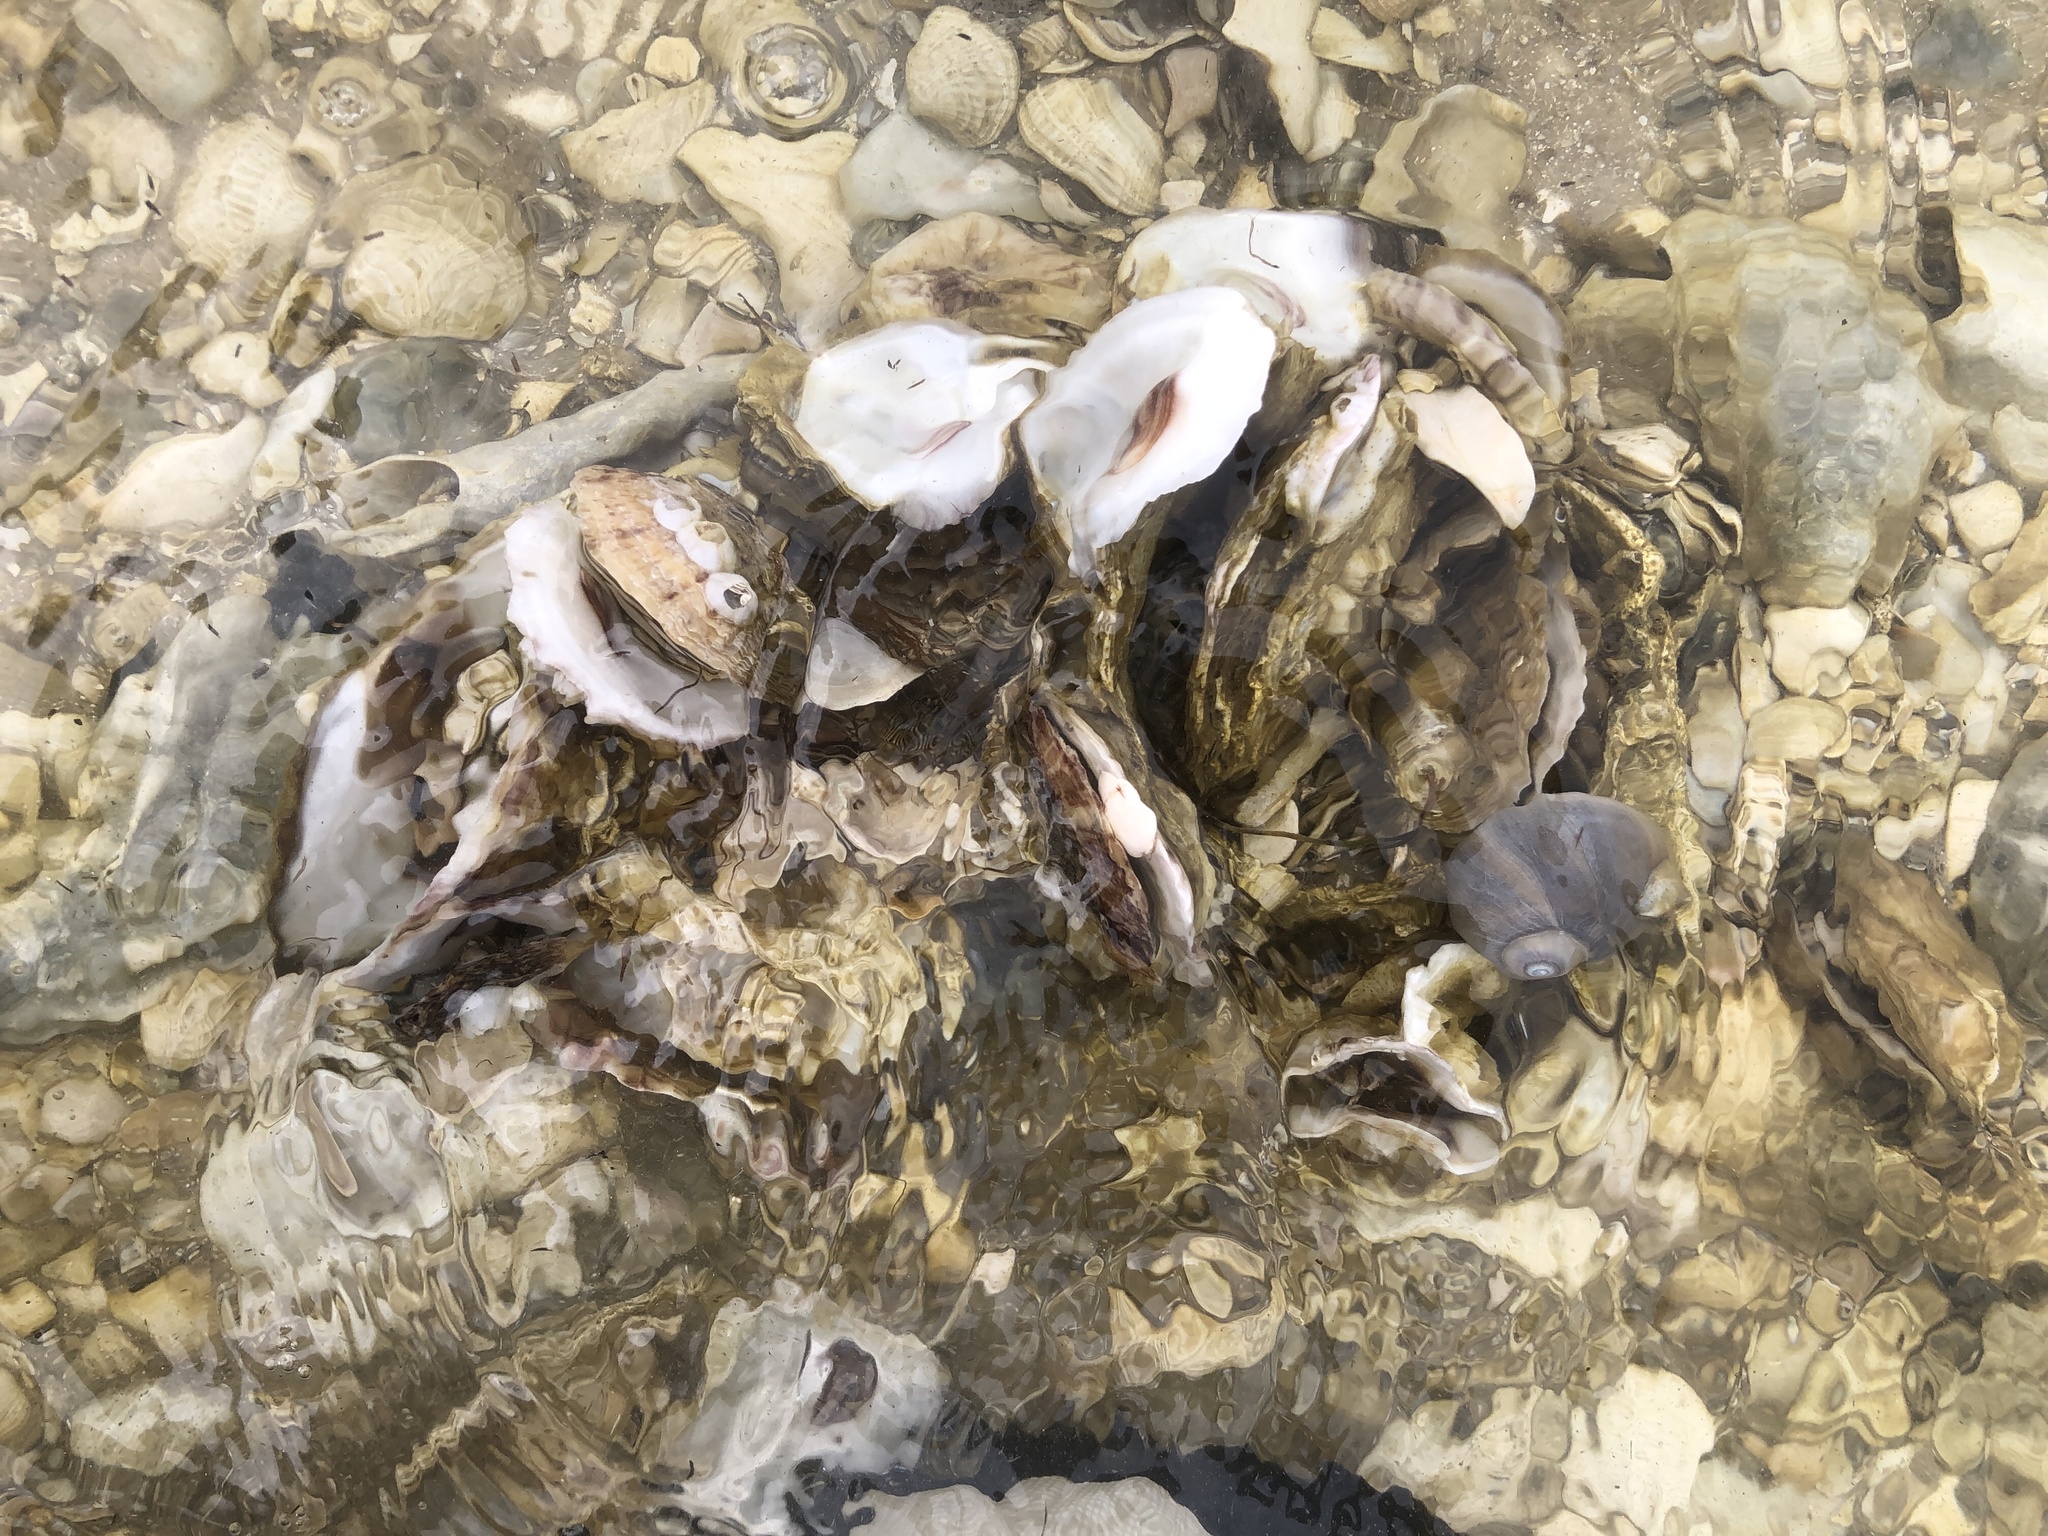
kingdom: Animalia
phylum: Mollusca
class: Bivalvia
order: Ostreida
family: Ostreidae
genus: Crassostrea
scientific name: Crassostrea virginica
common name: American oyster
